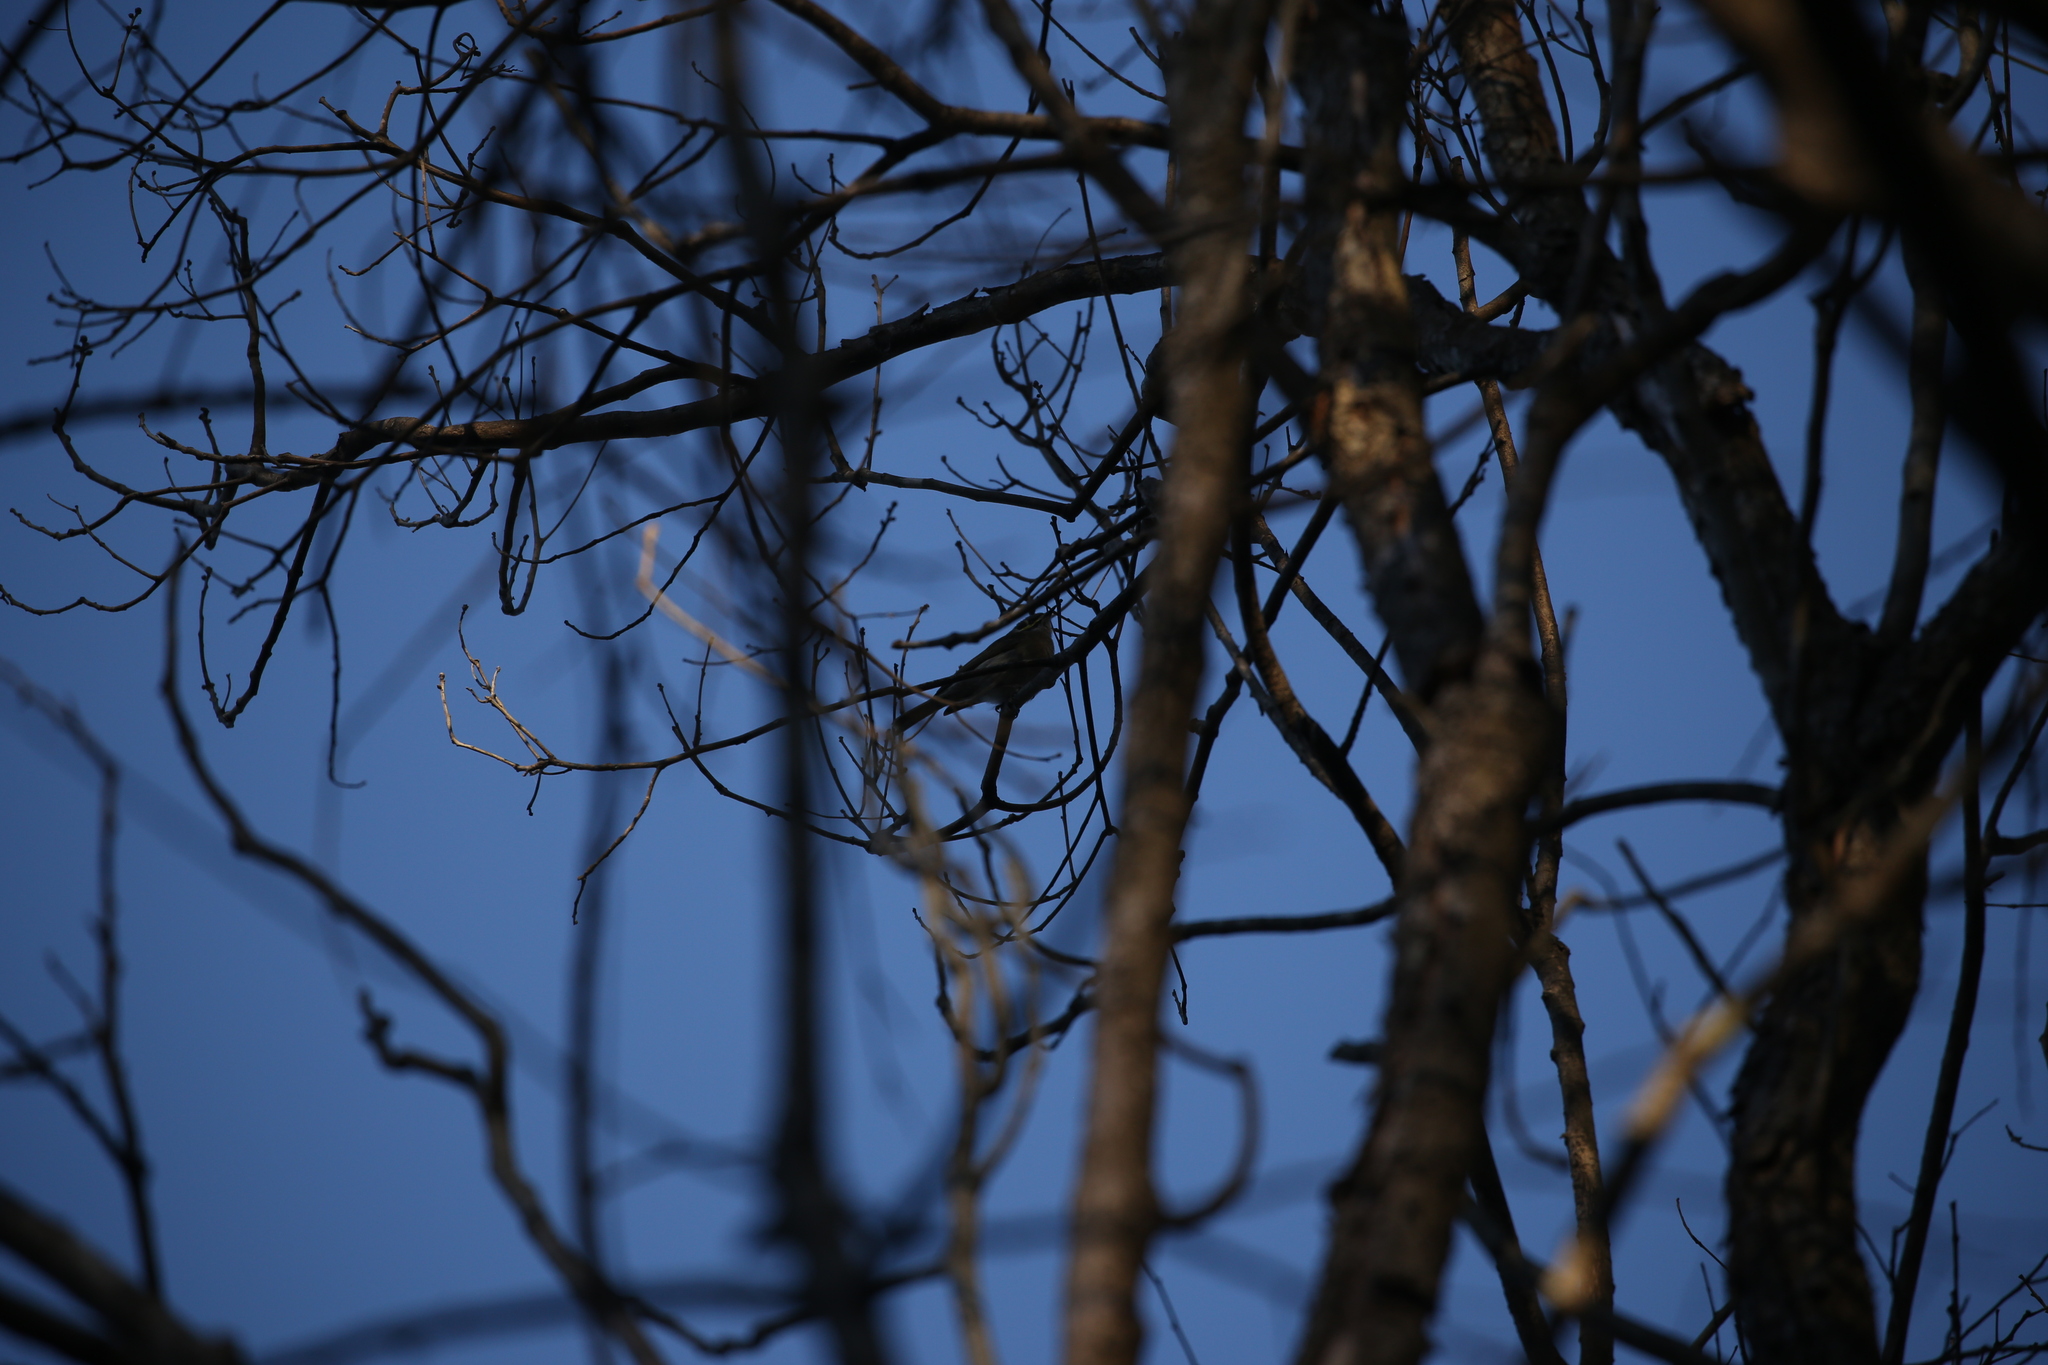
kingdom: Animalia
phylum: Chordata
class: Aves
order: Passeriformes
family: Meliphagidae
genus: Caligavis
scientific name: Caligavis chrysops
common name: Yellow-faced honeyeater
